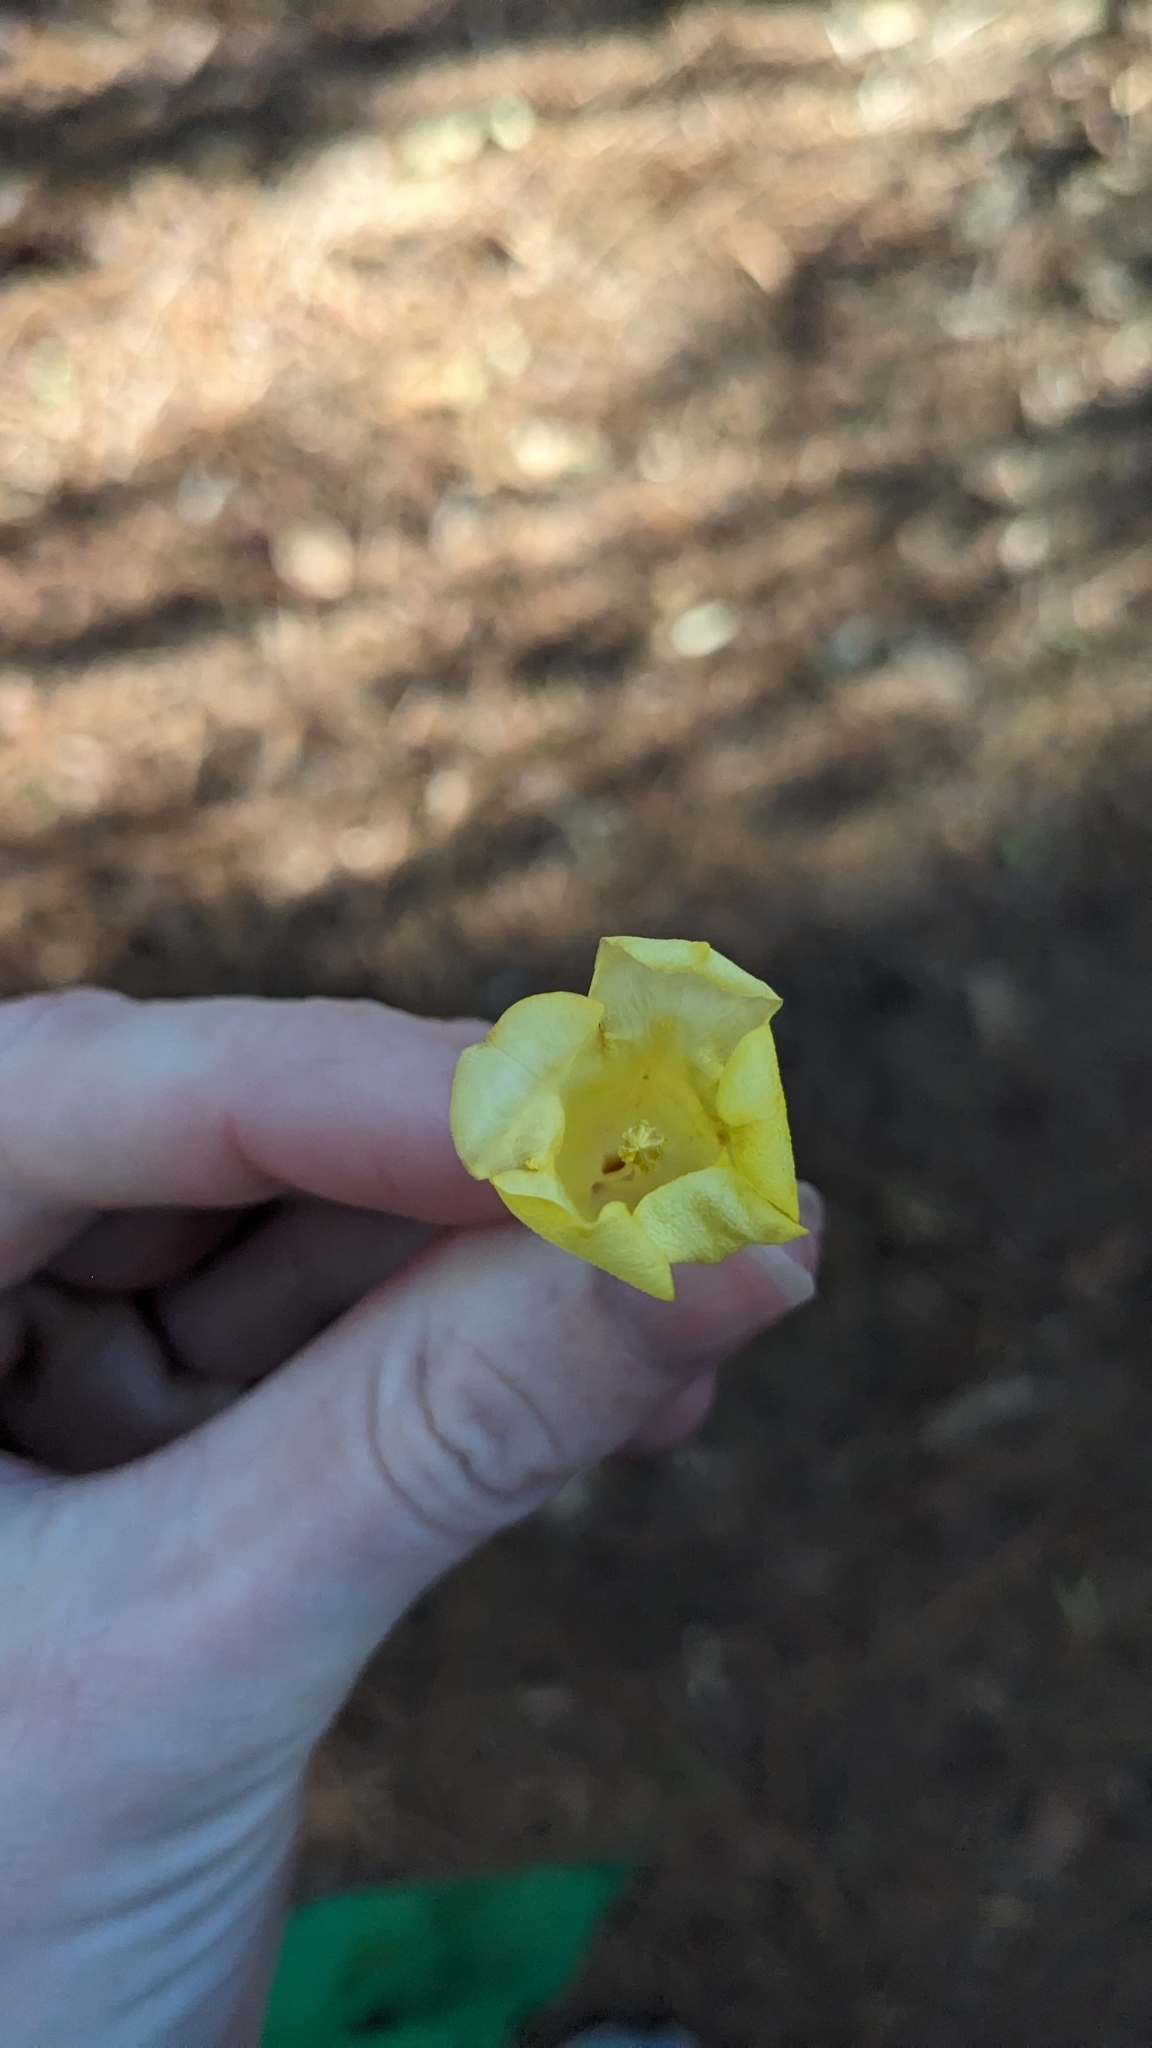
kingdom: Plantae
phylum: Tracheophyta
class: Magnoliopsida
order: Gentianales
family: Gelsemiaceae
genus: Gelsemium
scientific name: Gelsemium sempervirens
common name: Carolina-jasmine
